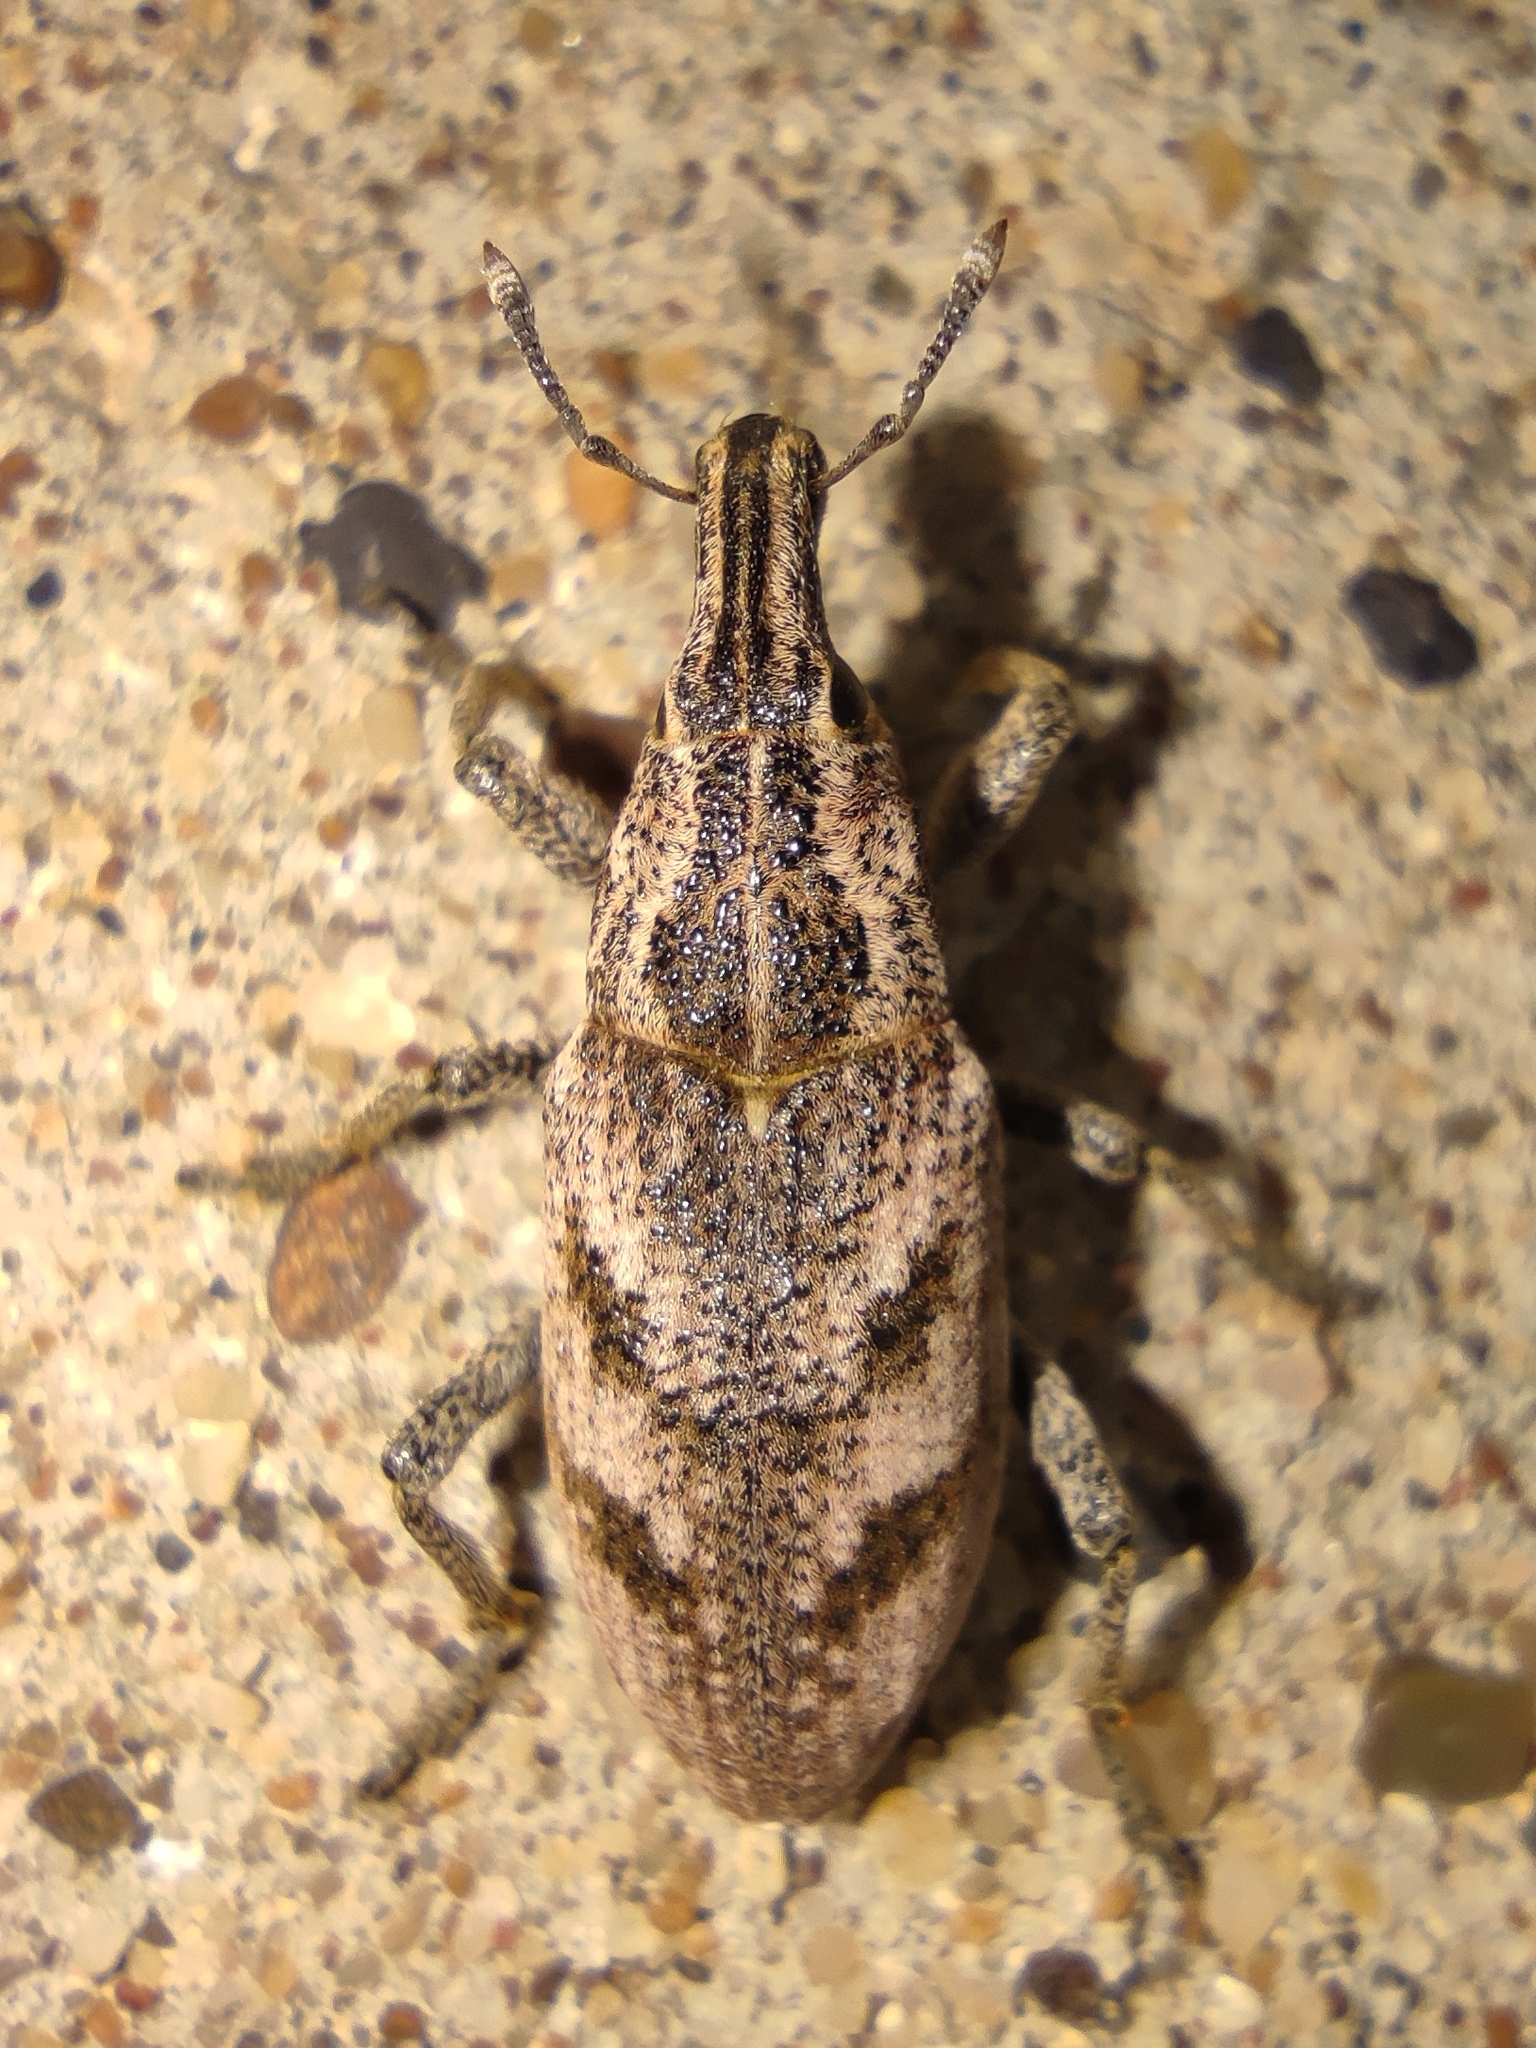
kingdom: Animalia
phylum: Arthropoda
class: Insecta
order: Coleoptera
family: Curculionidae
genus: Cleonis
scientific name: Cleonis pigra
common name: Large thistle weevil
